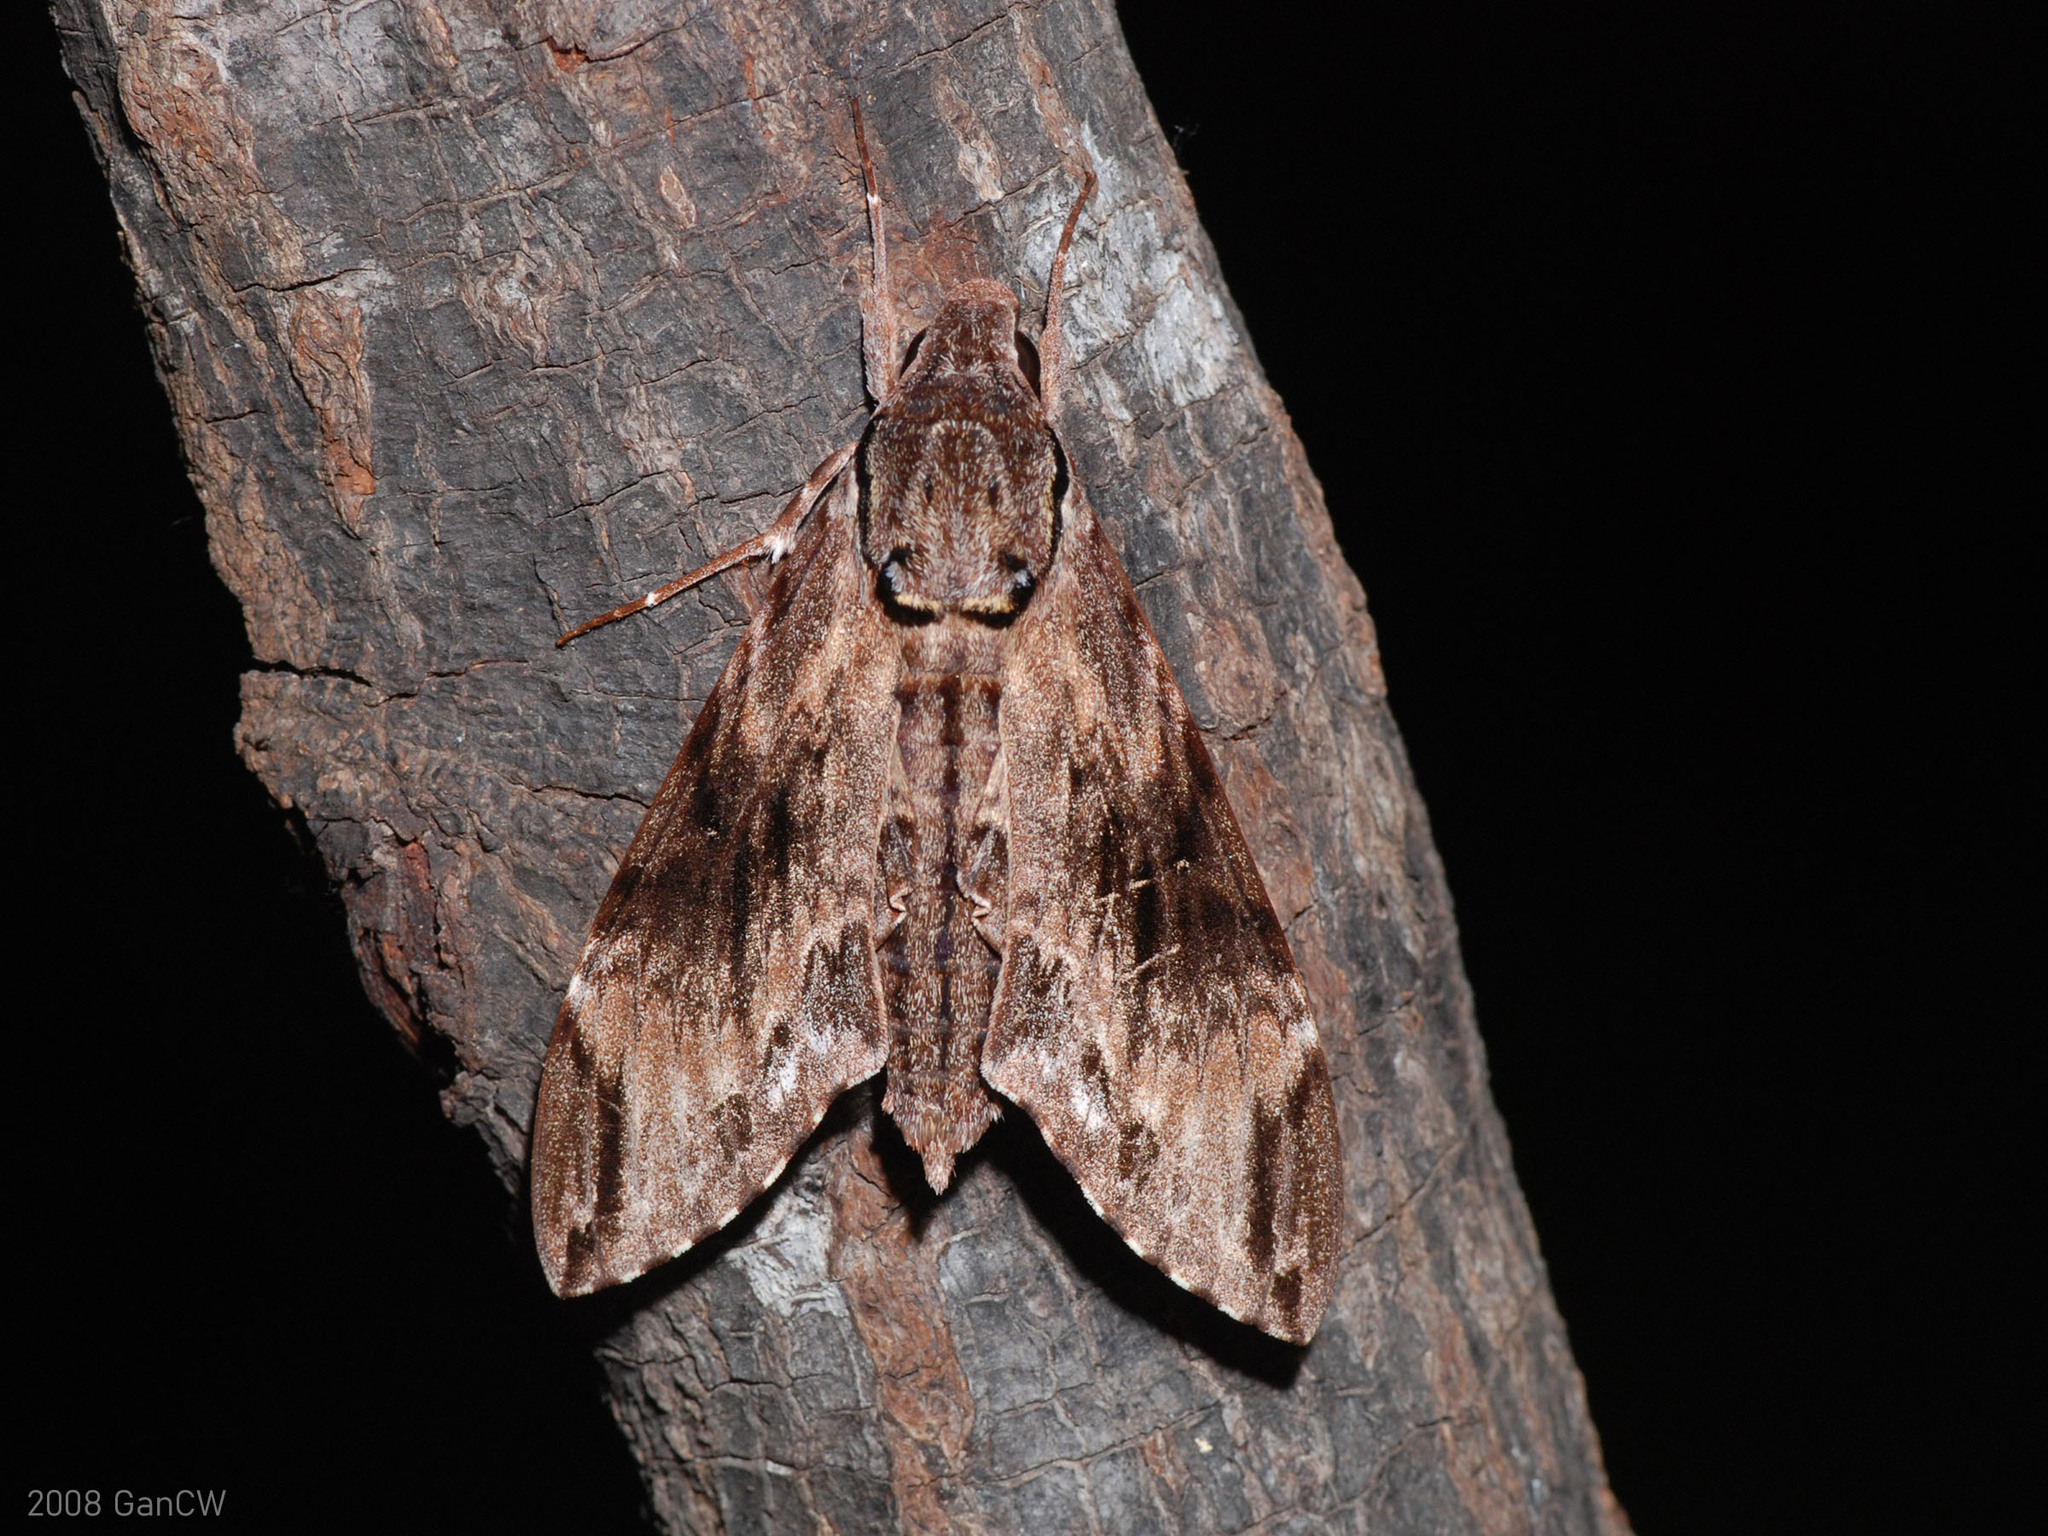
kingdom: Animalia
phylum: Arthropoda
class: Insecta
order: Lepidoptera
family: Sphingidae
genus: Psilogramma
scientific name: Psilogramma menephron
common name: Gray hawk moth
